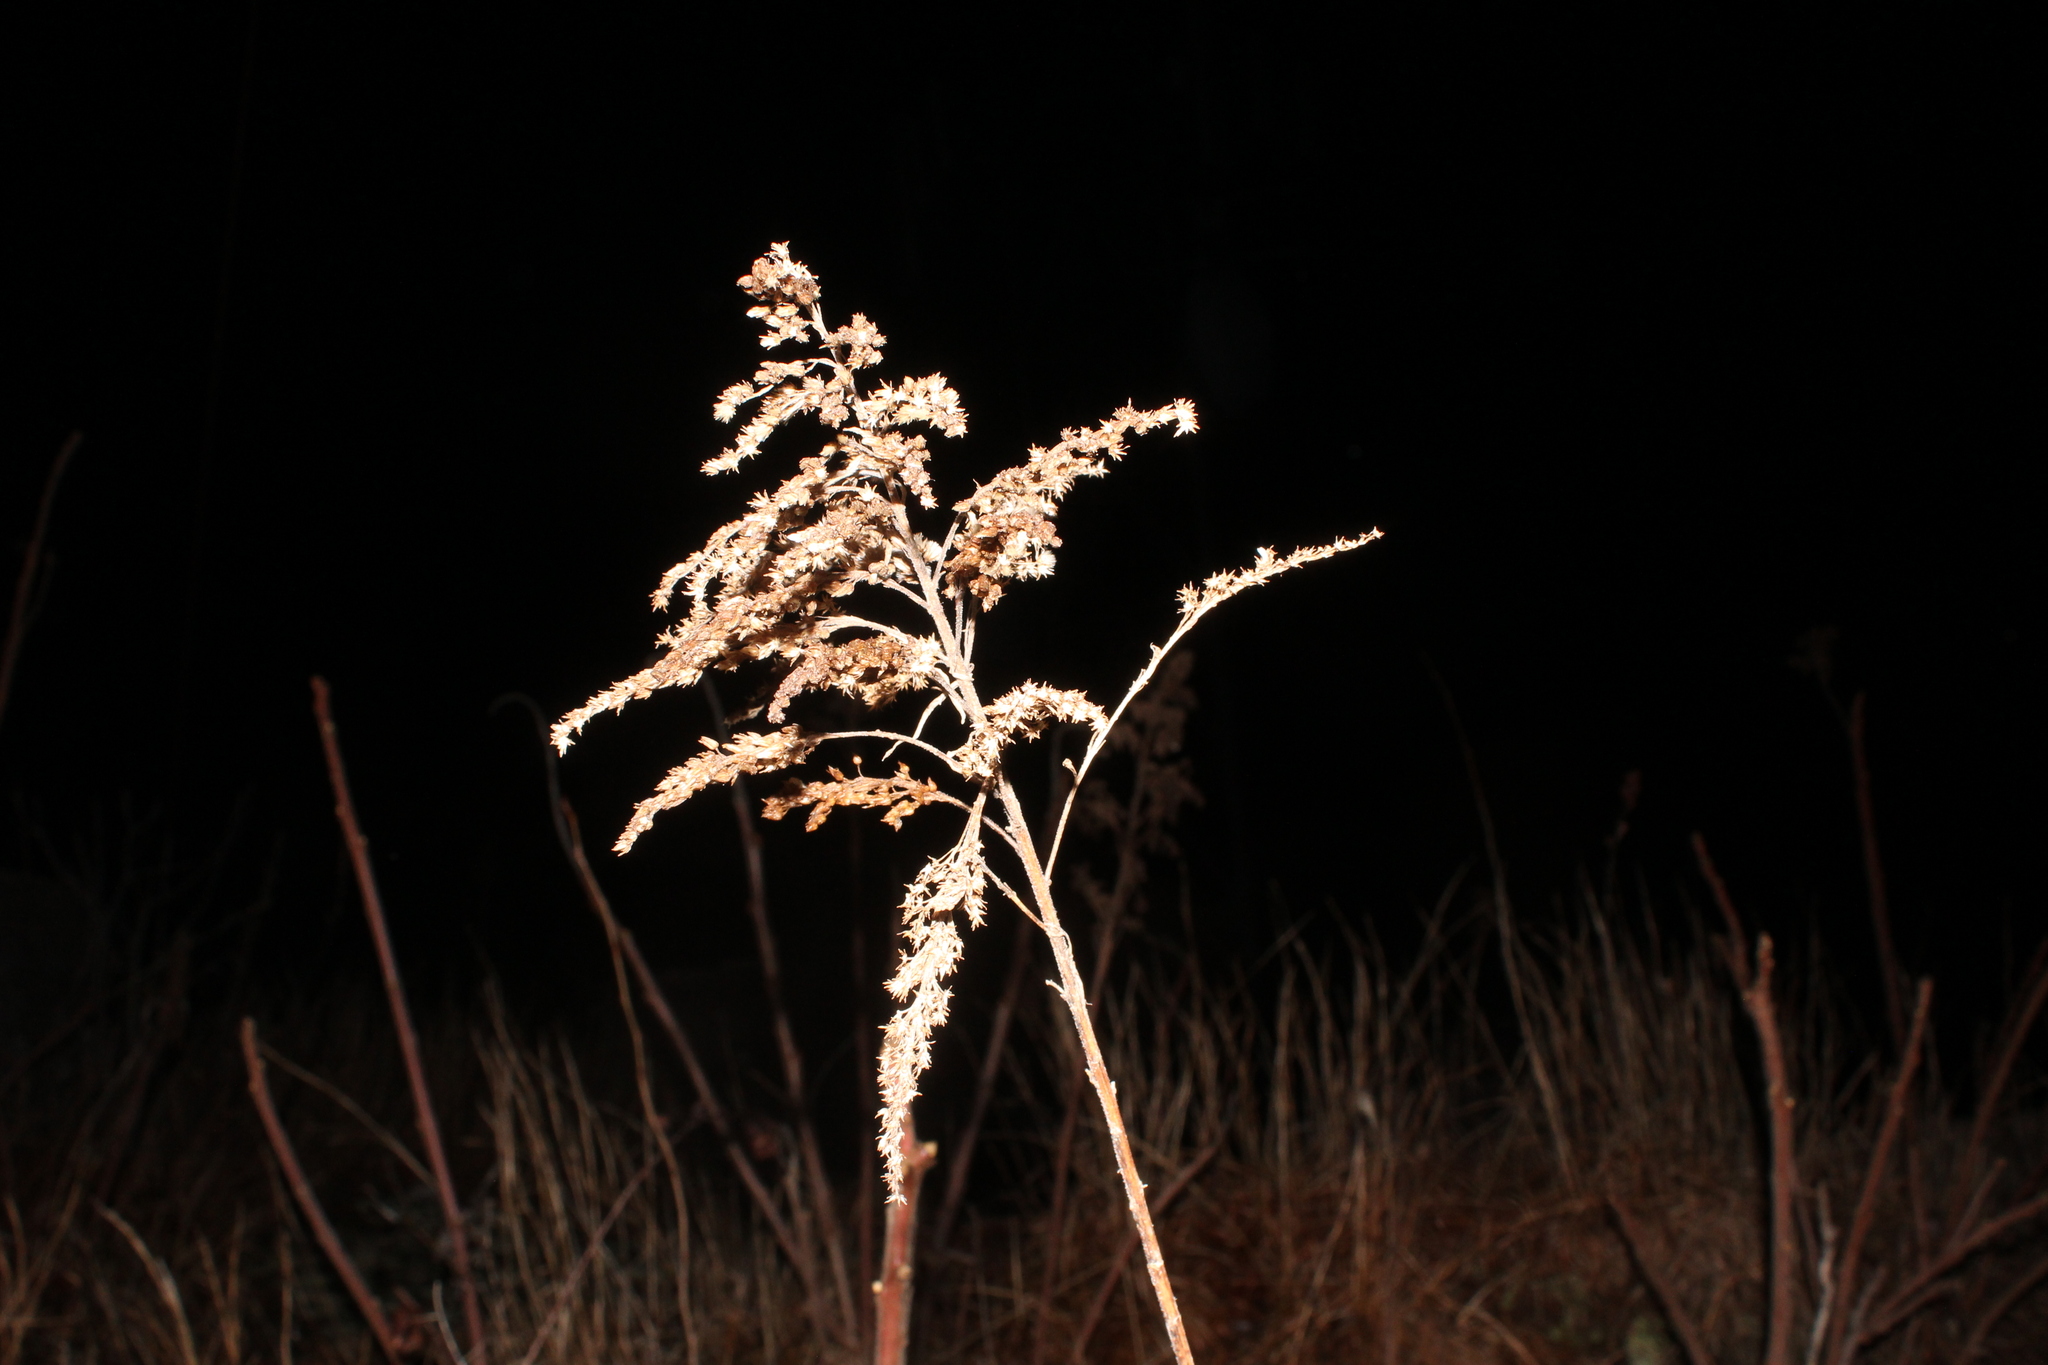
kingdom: Plantae
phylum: Tracheophyta
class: Magnoliopsida
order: Asterales
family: Asteraceae
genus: Solidago
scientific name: Solidago
